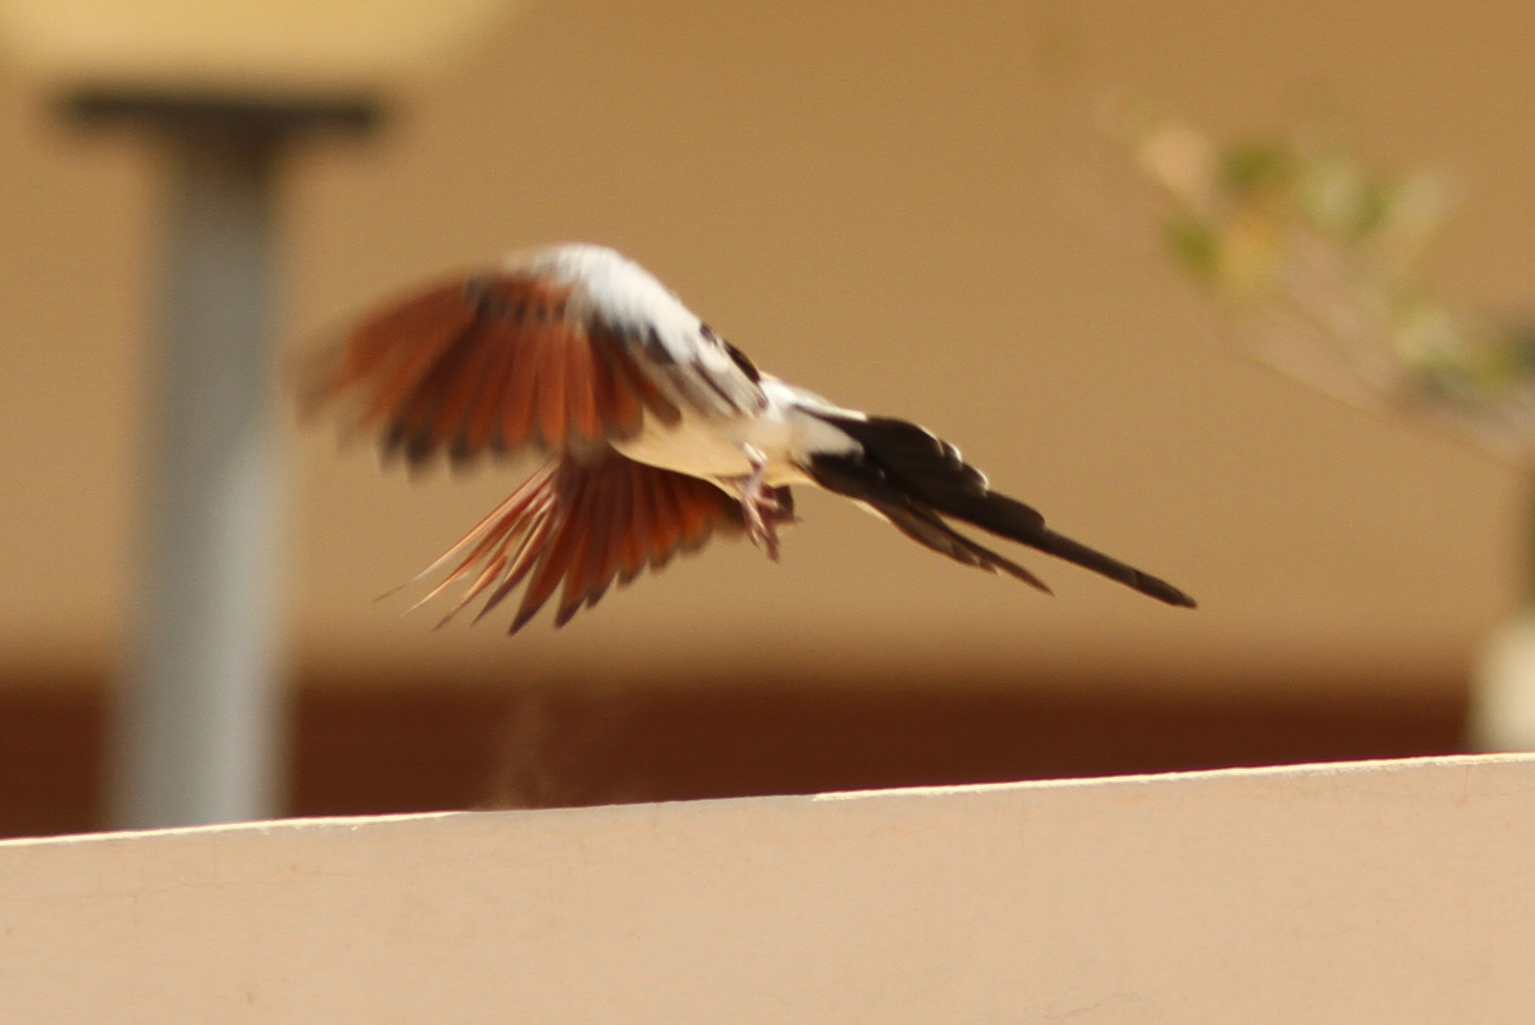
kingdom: Animalia
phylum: Chordata
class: Aves
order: Columbiformes
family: Columbidae
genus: Oena
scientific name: Oena capensis
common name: Namaqua dove
